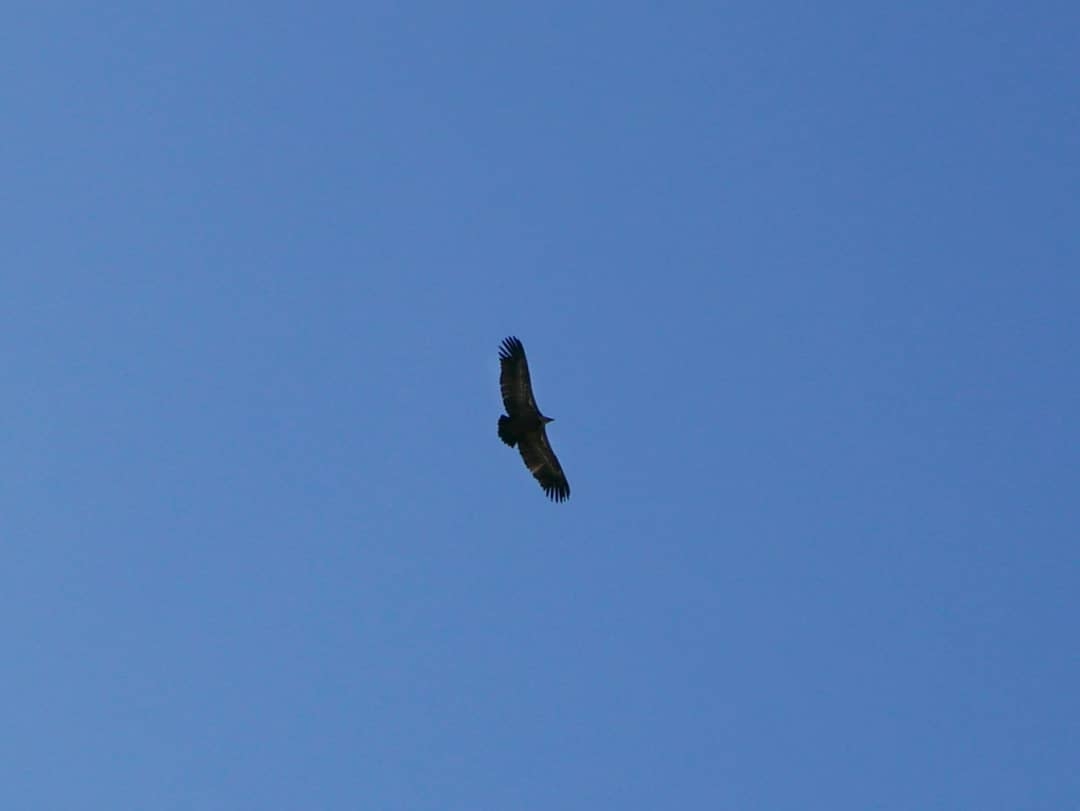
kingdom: Animalia
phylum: Chordata
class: Aves
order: Accipitriformes
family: Accipitridae
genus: Gyps
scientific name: Gyps fulvus
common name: Griffon vulture
